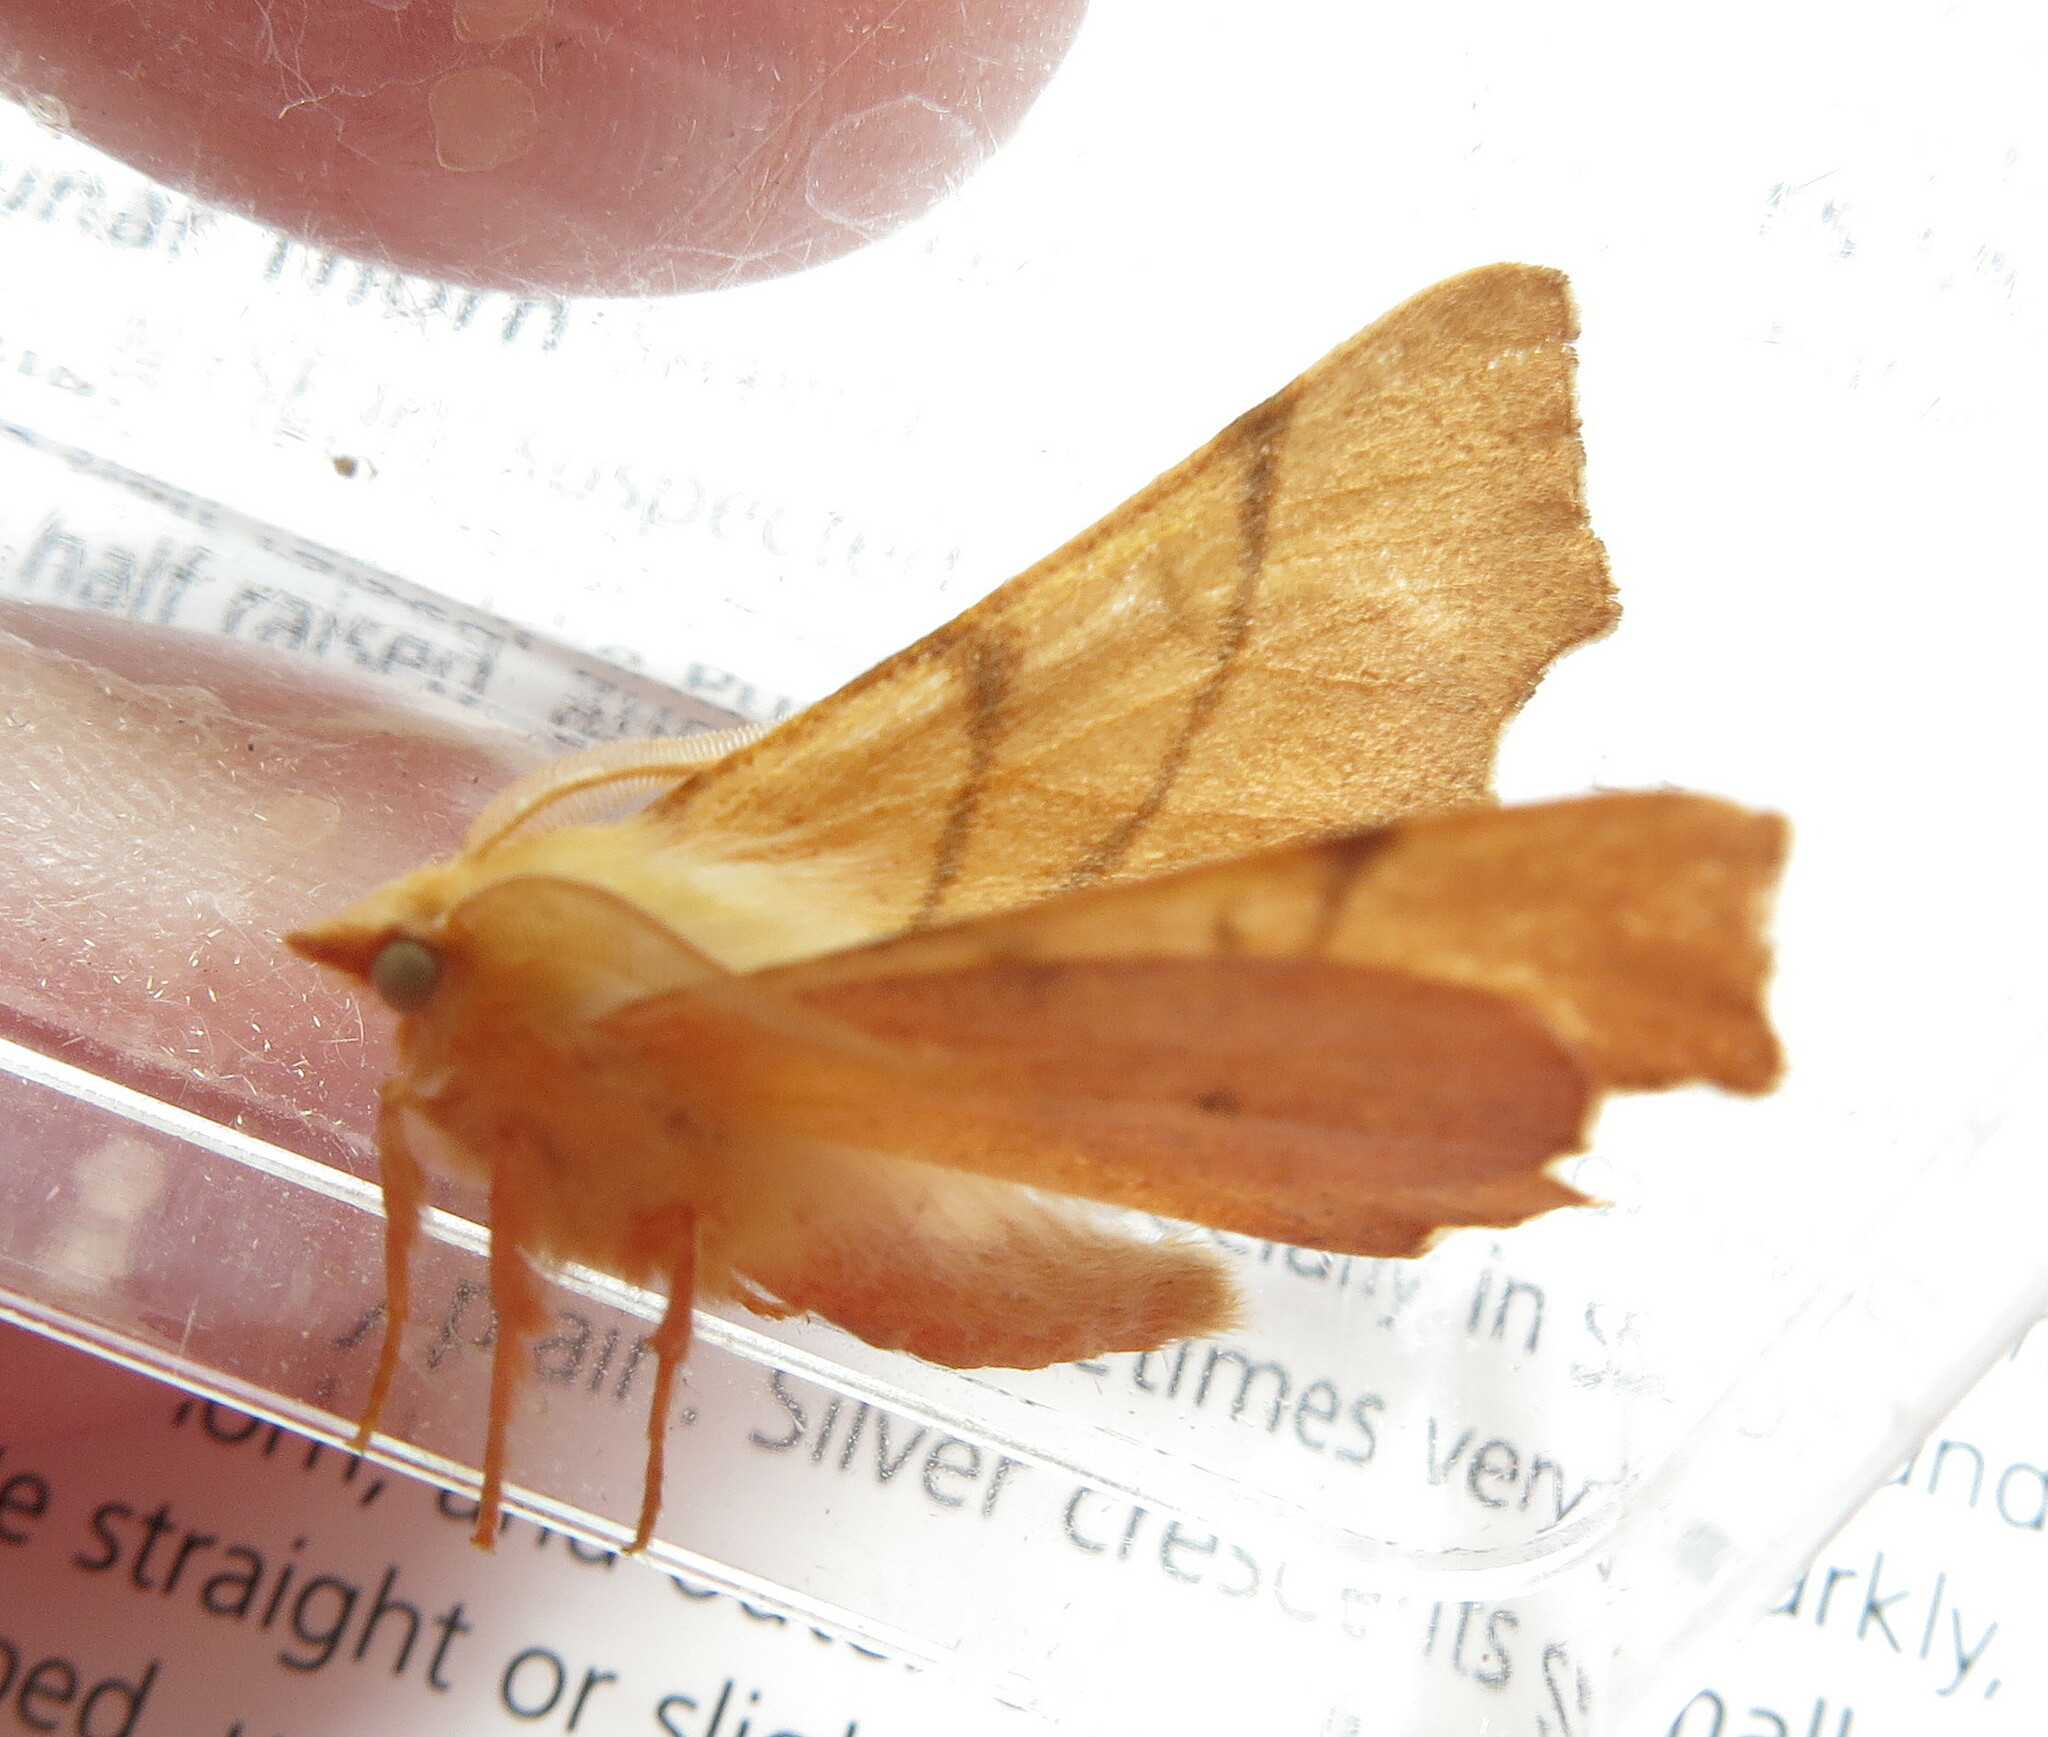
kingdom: Animalia
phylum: Arthropoda
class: Insecta
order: Lepidoptera
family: Geometridae
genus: Ennomos
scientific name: Ennomos erosaria
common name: September thorn
